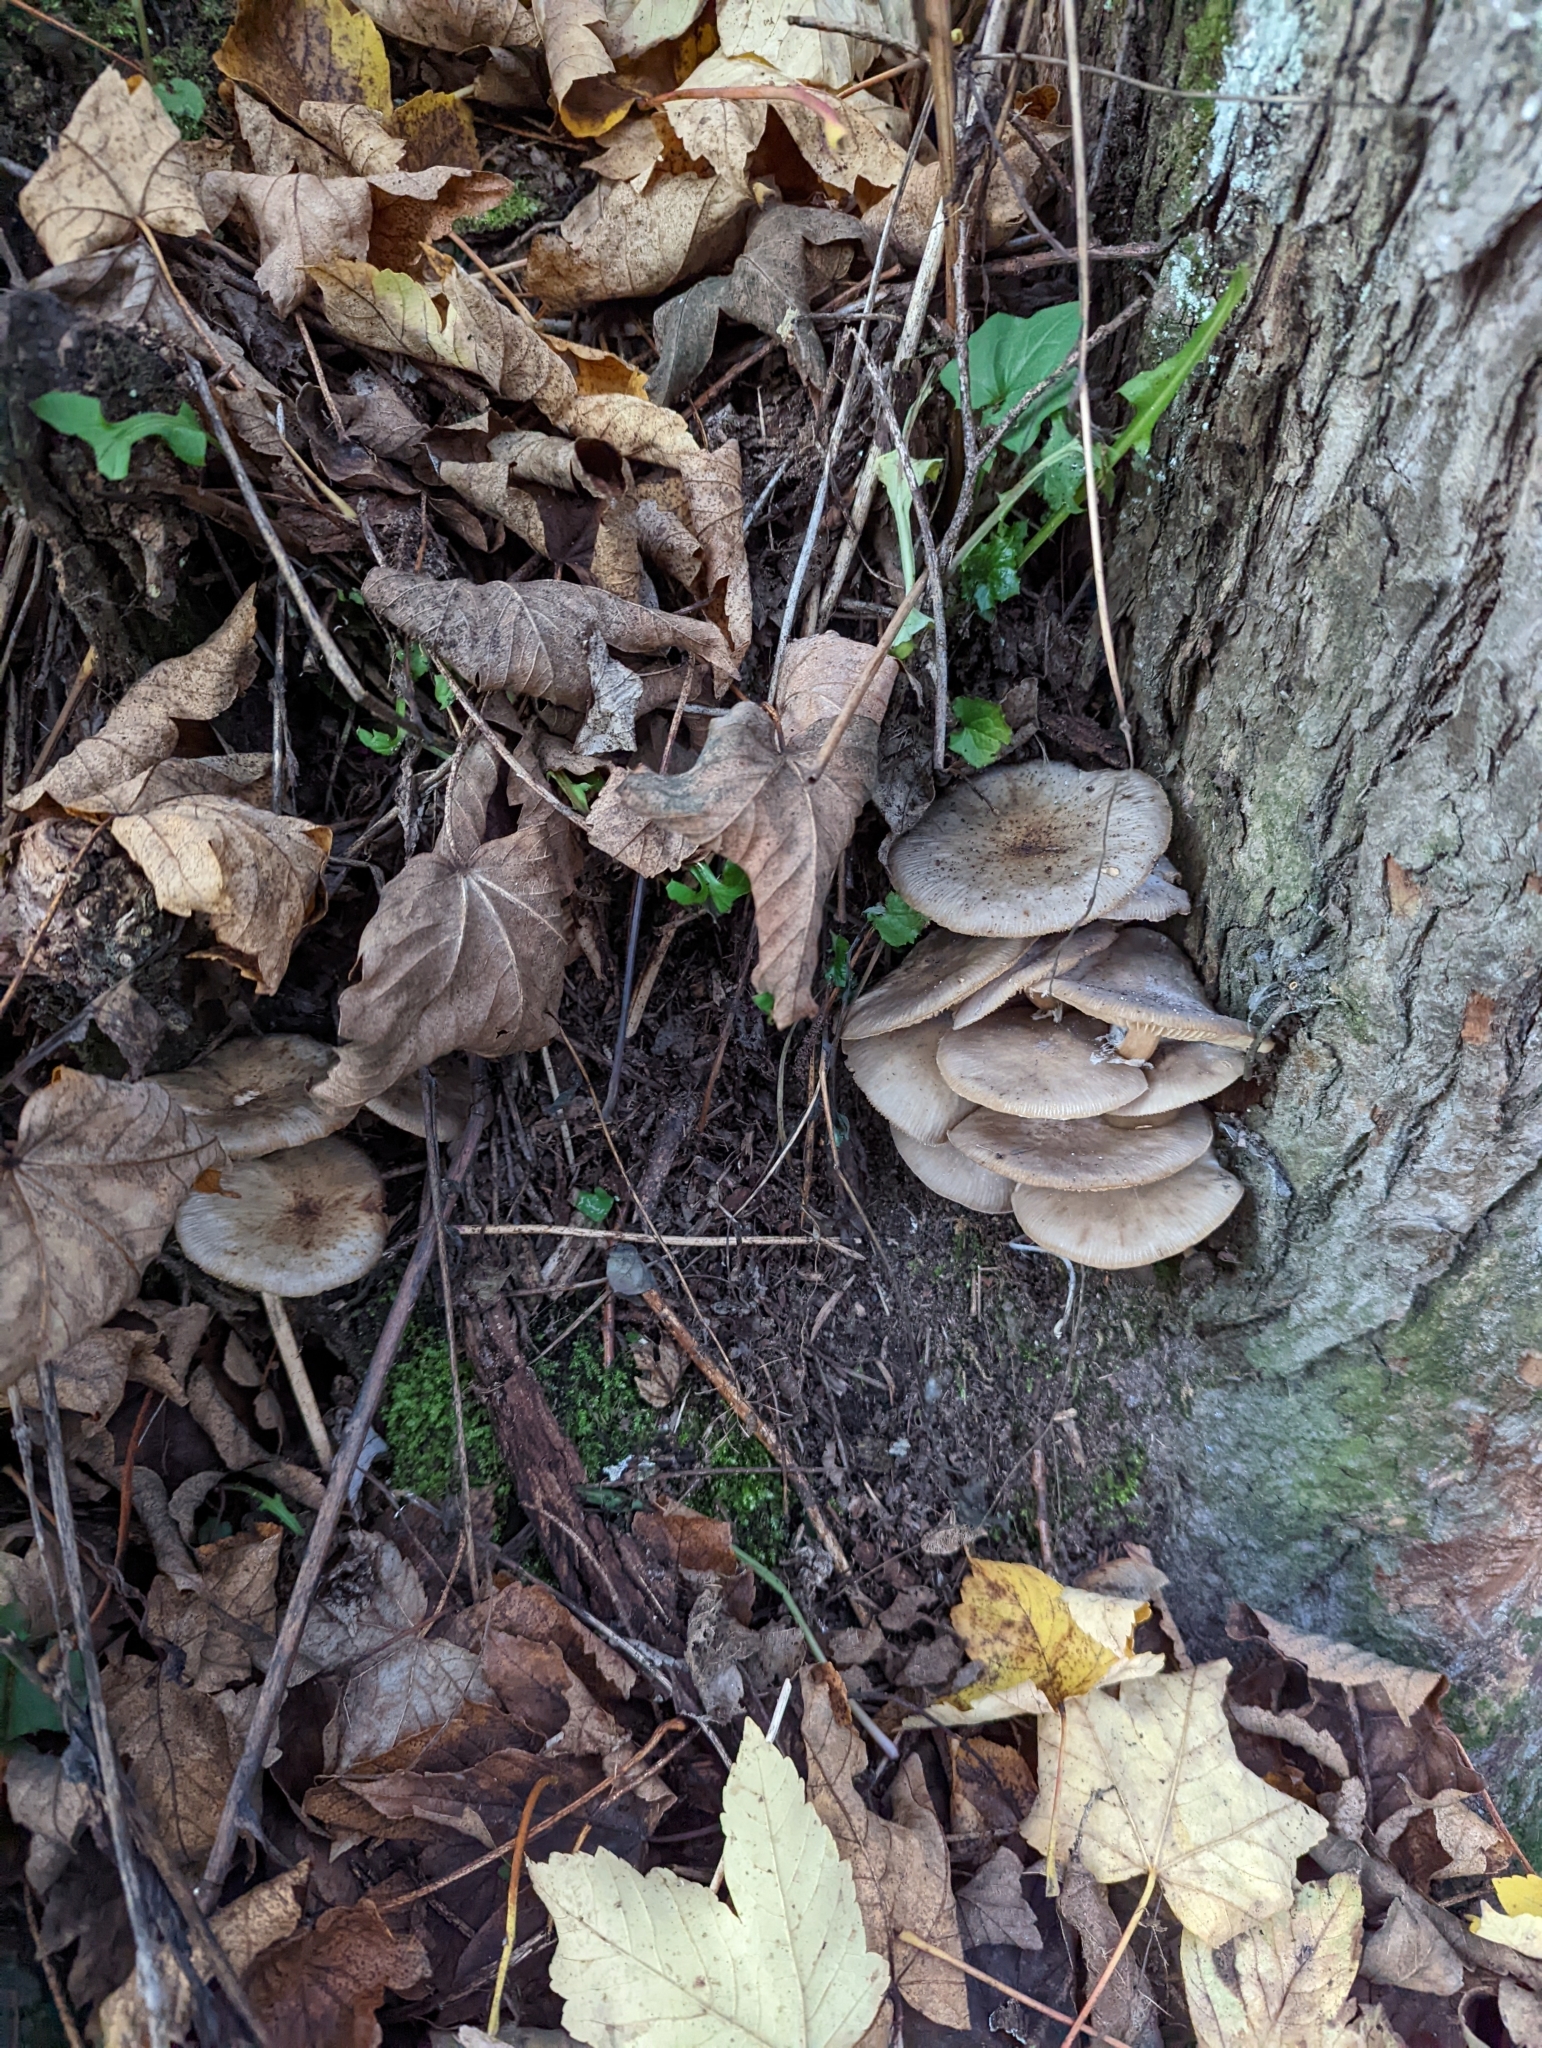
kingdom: Fungi
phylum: Basidiomycota
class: Agaricomycetes
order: Agaricales
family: Physalacriaceae
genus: Armillaria
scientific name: Armillaria novae-zelandiae
